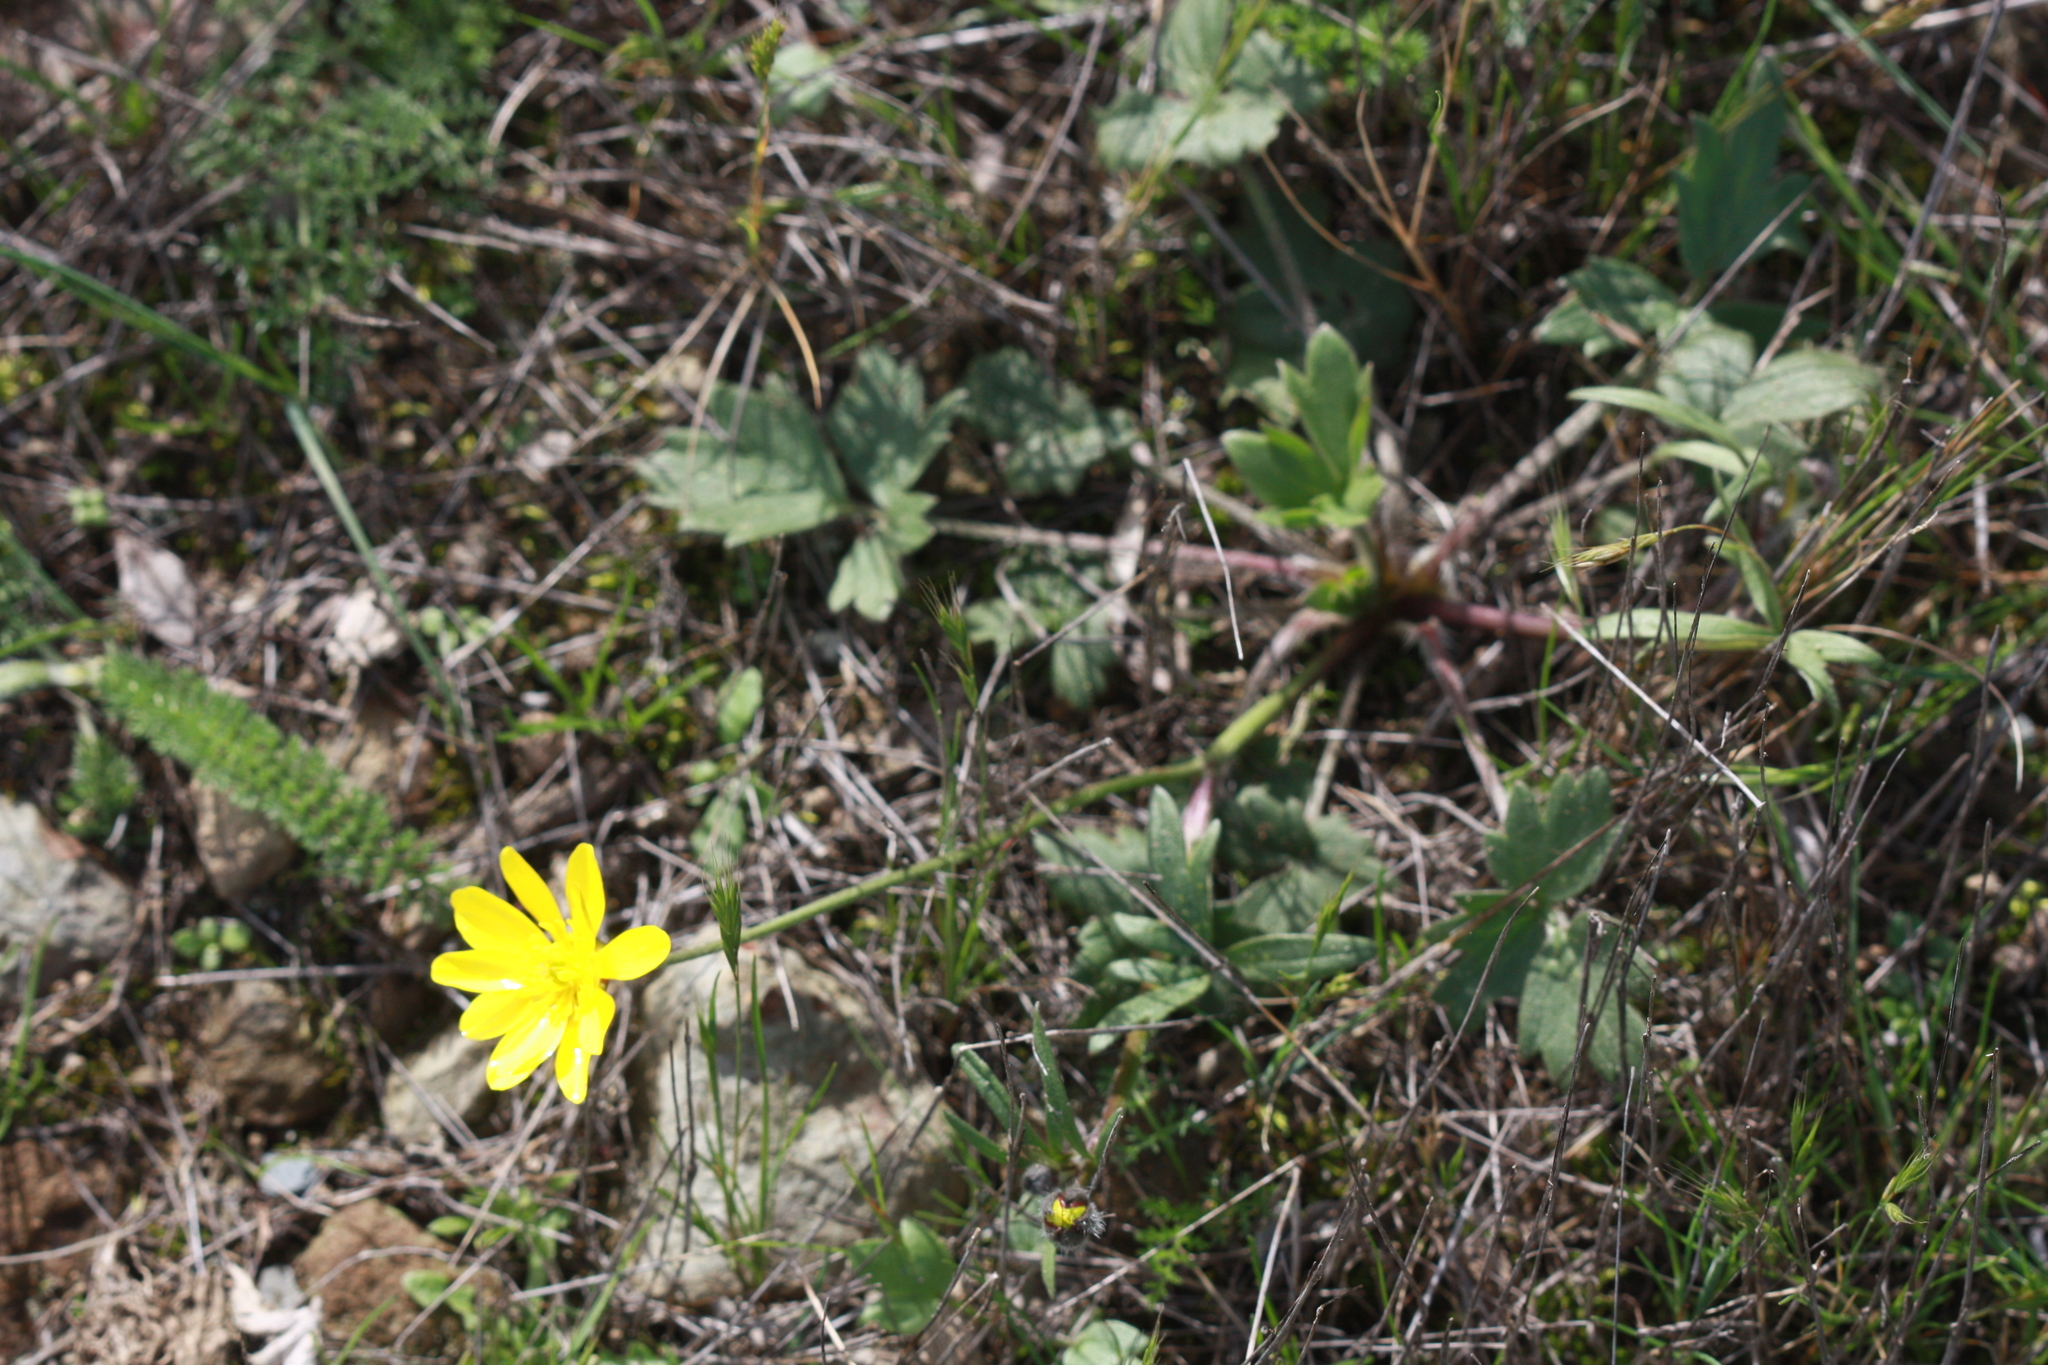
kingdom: Plantae
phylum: Tracheophyta
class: Magnoliopsida
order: Ranunculales
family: Ranunculaceae
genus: Ranunculus
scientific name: Ranunculus californicus
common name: California buttercup
